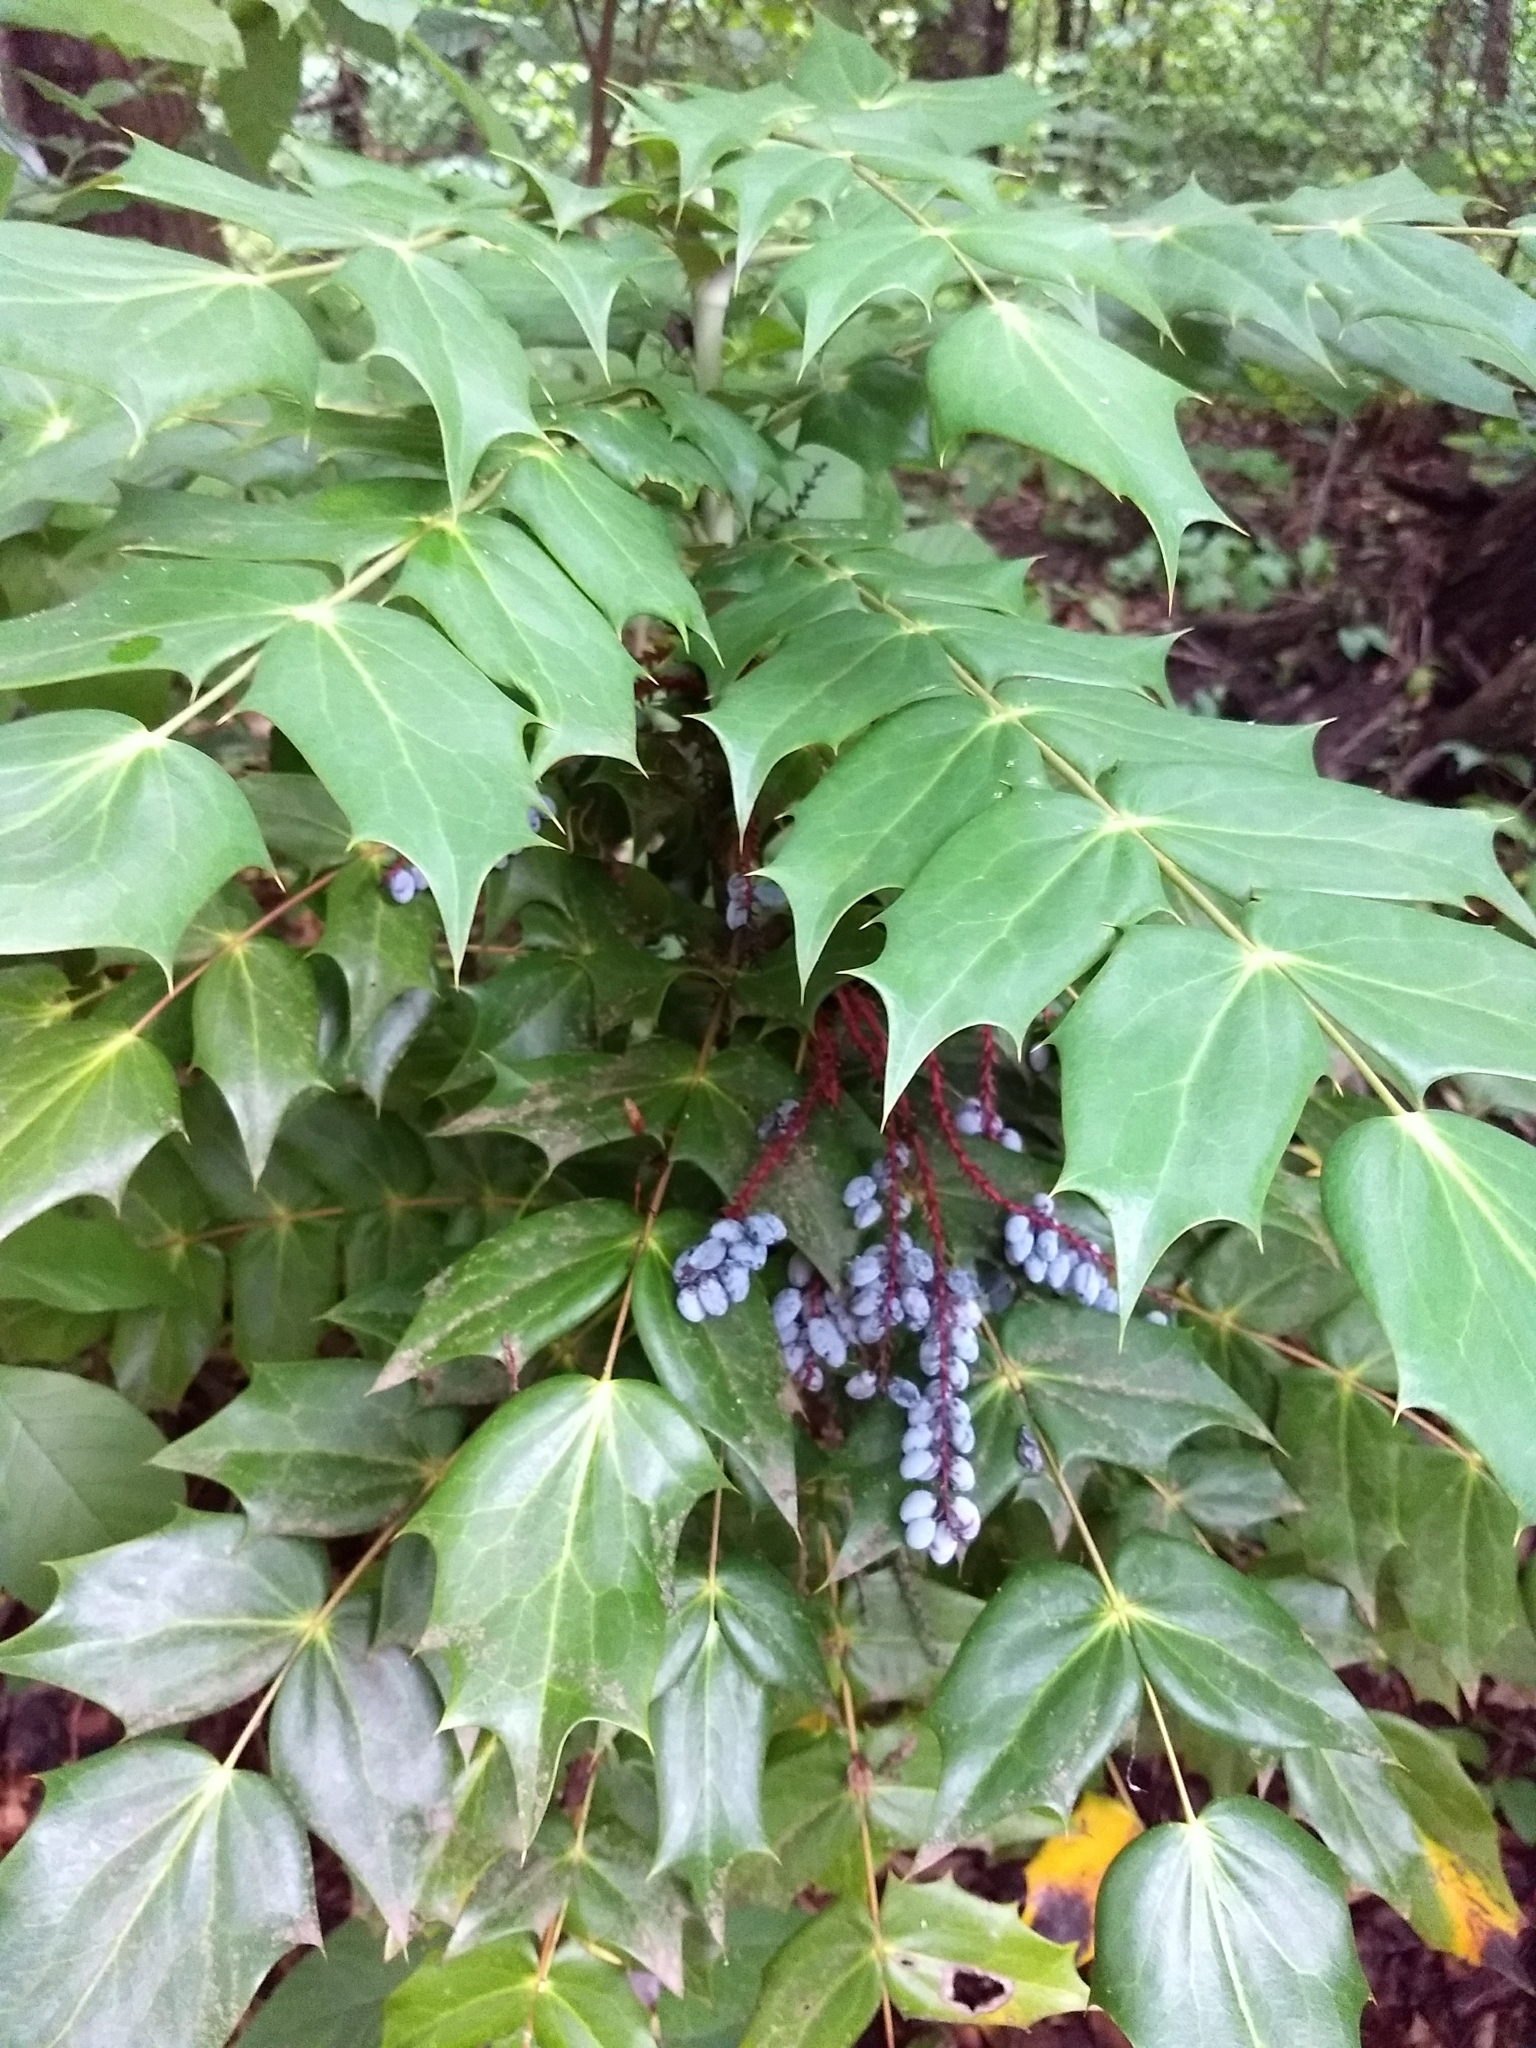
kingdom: Plantae
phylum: Tracheophyta
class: Magnoliopsida
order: Ranunculales
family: Berberidaceae
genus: Mahonia
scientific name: Mahonia bealei
